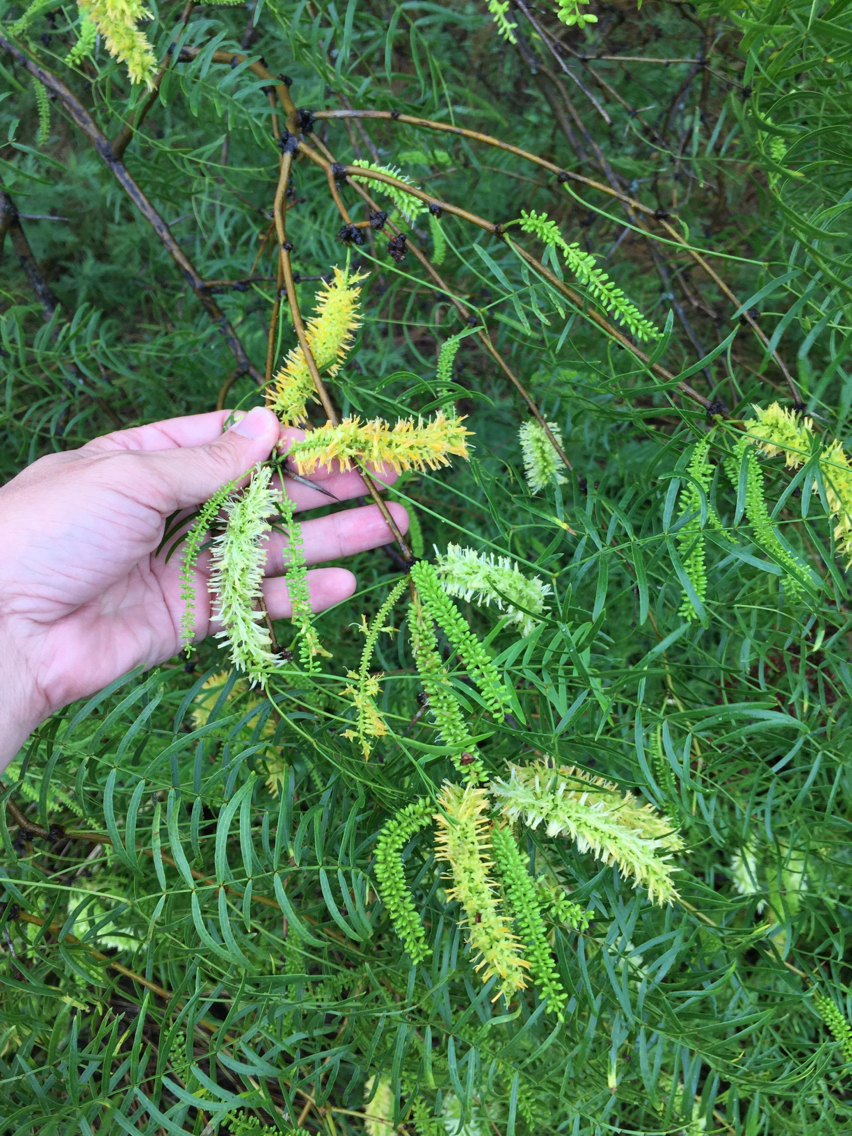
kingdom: Plantae
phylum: Tracheophyta
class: Magnoliopsida
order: Fabales
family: Fabaceae
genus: Prosopis
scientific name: Prosopis glandulosa
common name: Honey mesquite
